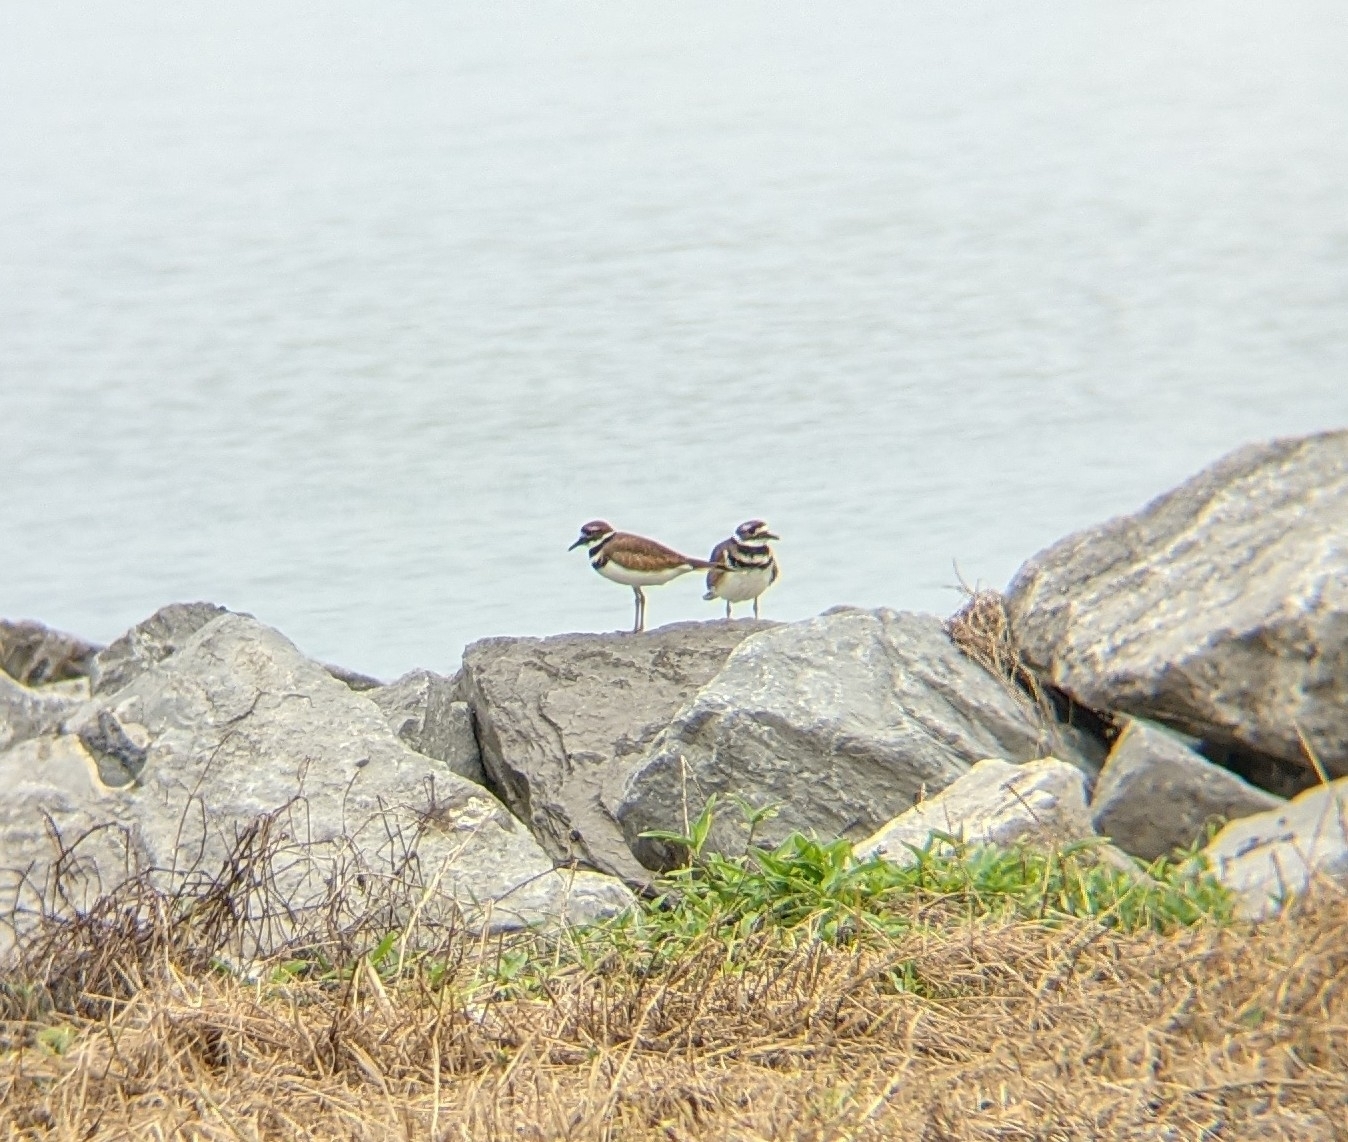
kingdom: Animalia
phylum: Chordata
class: Aves
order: Charadriiformes
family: Charadriidae
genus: Charadrius
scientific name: Charadrius vociferus
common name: Killdeer
